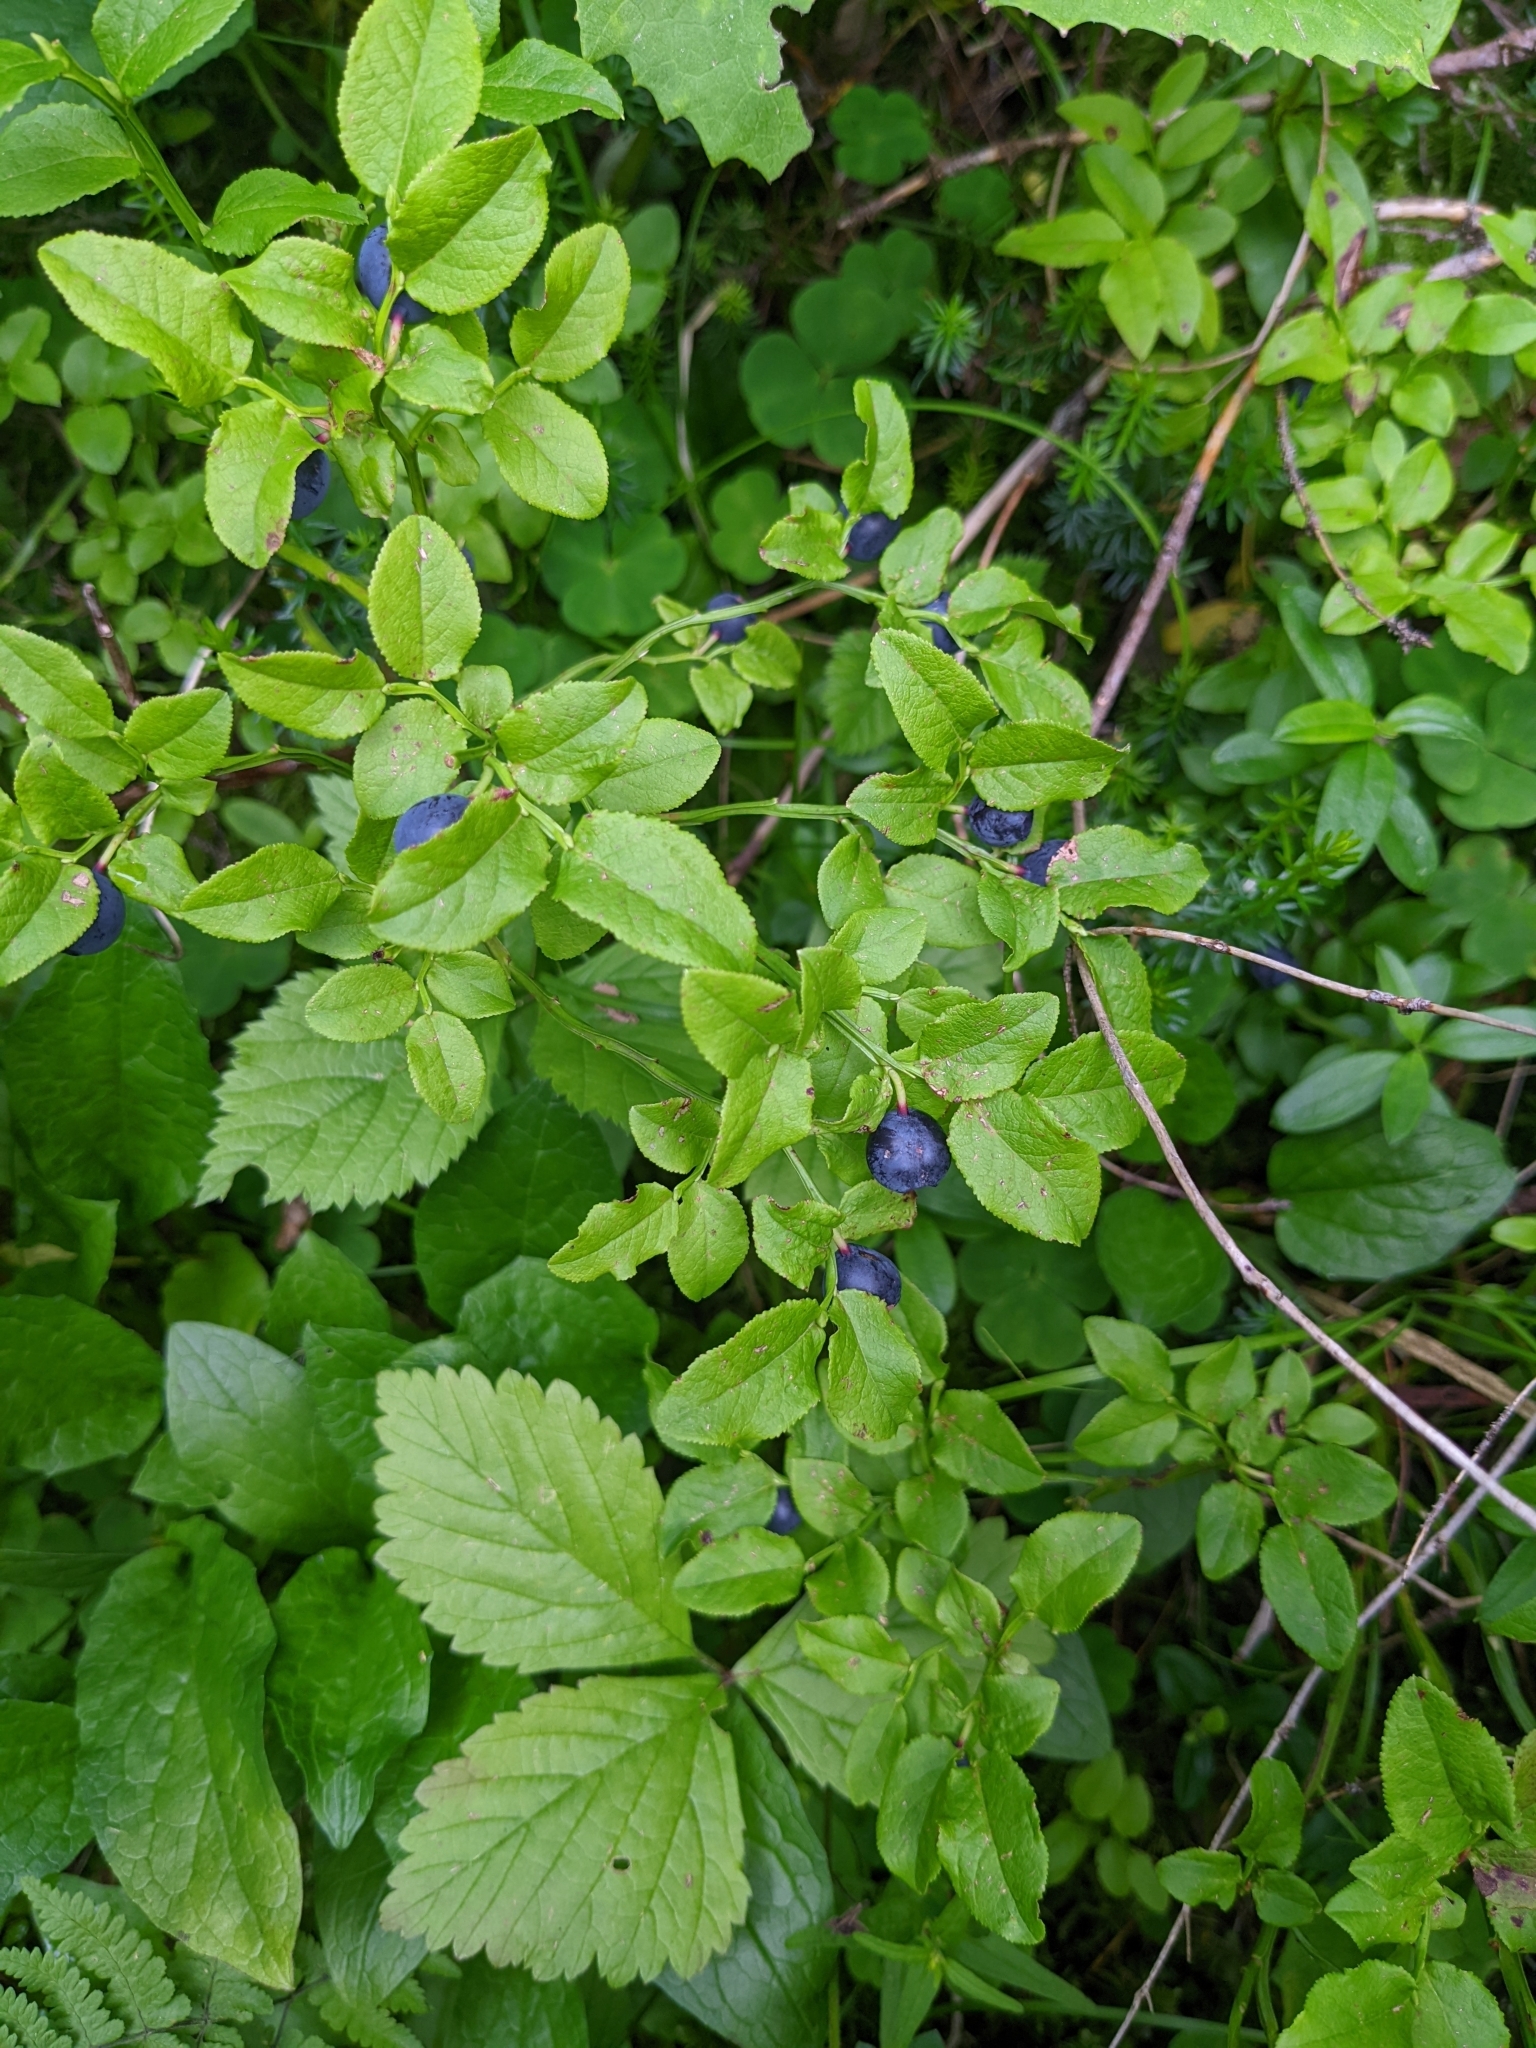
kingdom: Plantae
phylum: Tracheophyta
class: Magnoliopsida
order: Ericales
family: Ericaceae
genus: Vaccinium
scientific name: Vaccinium myrtillus
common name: Bilberry
